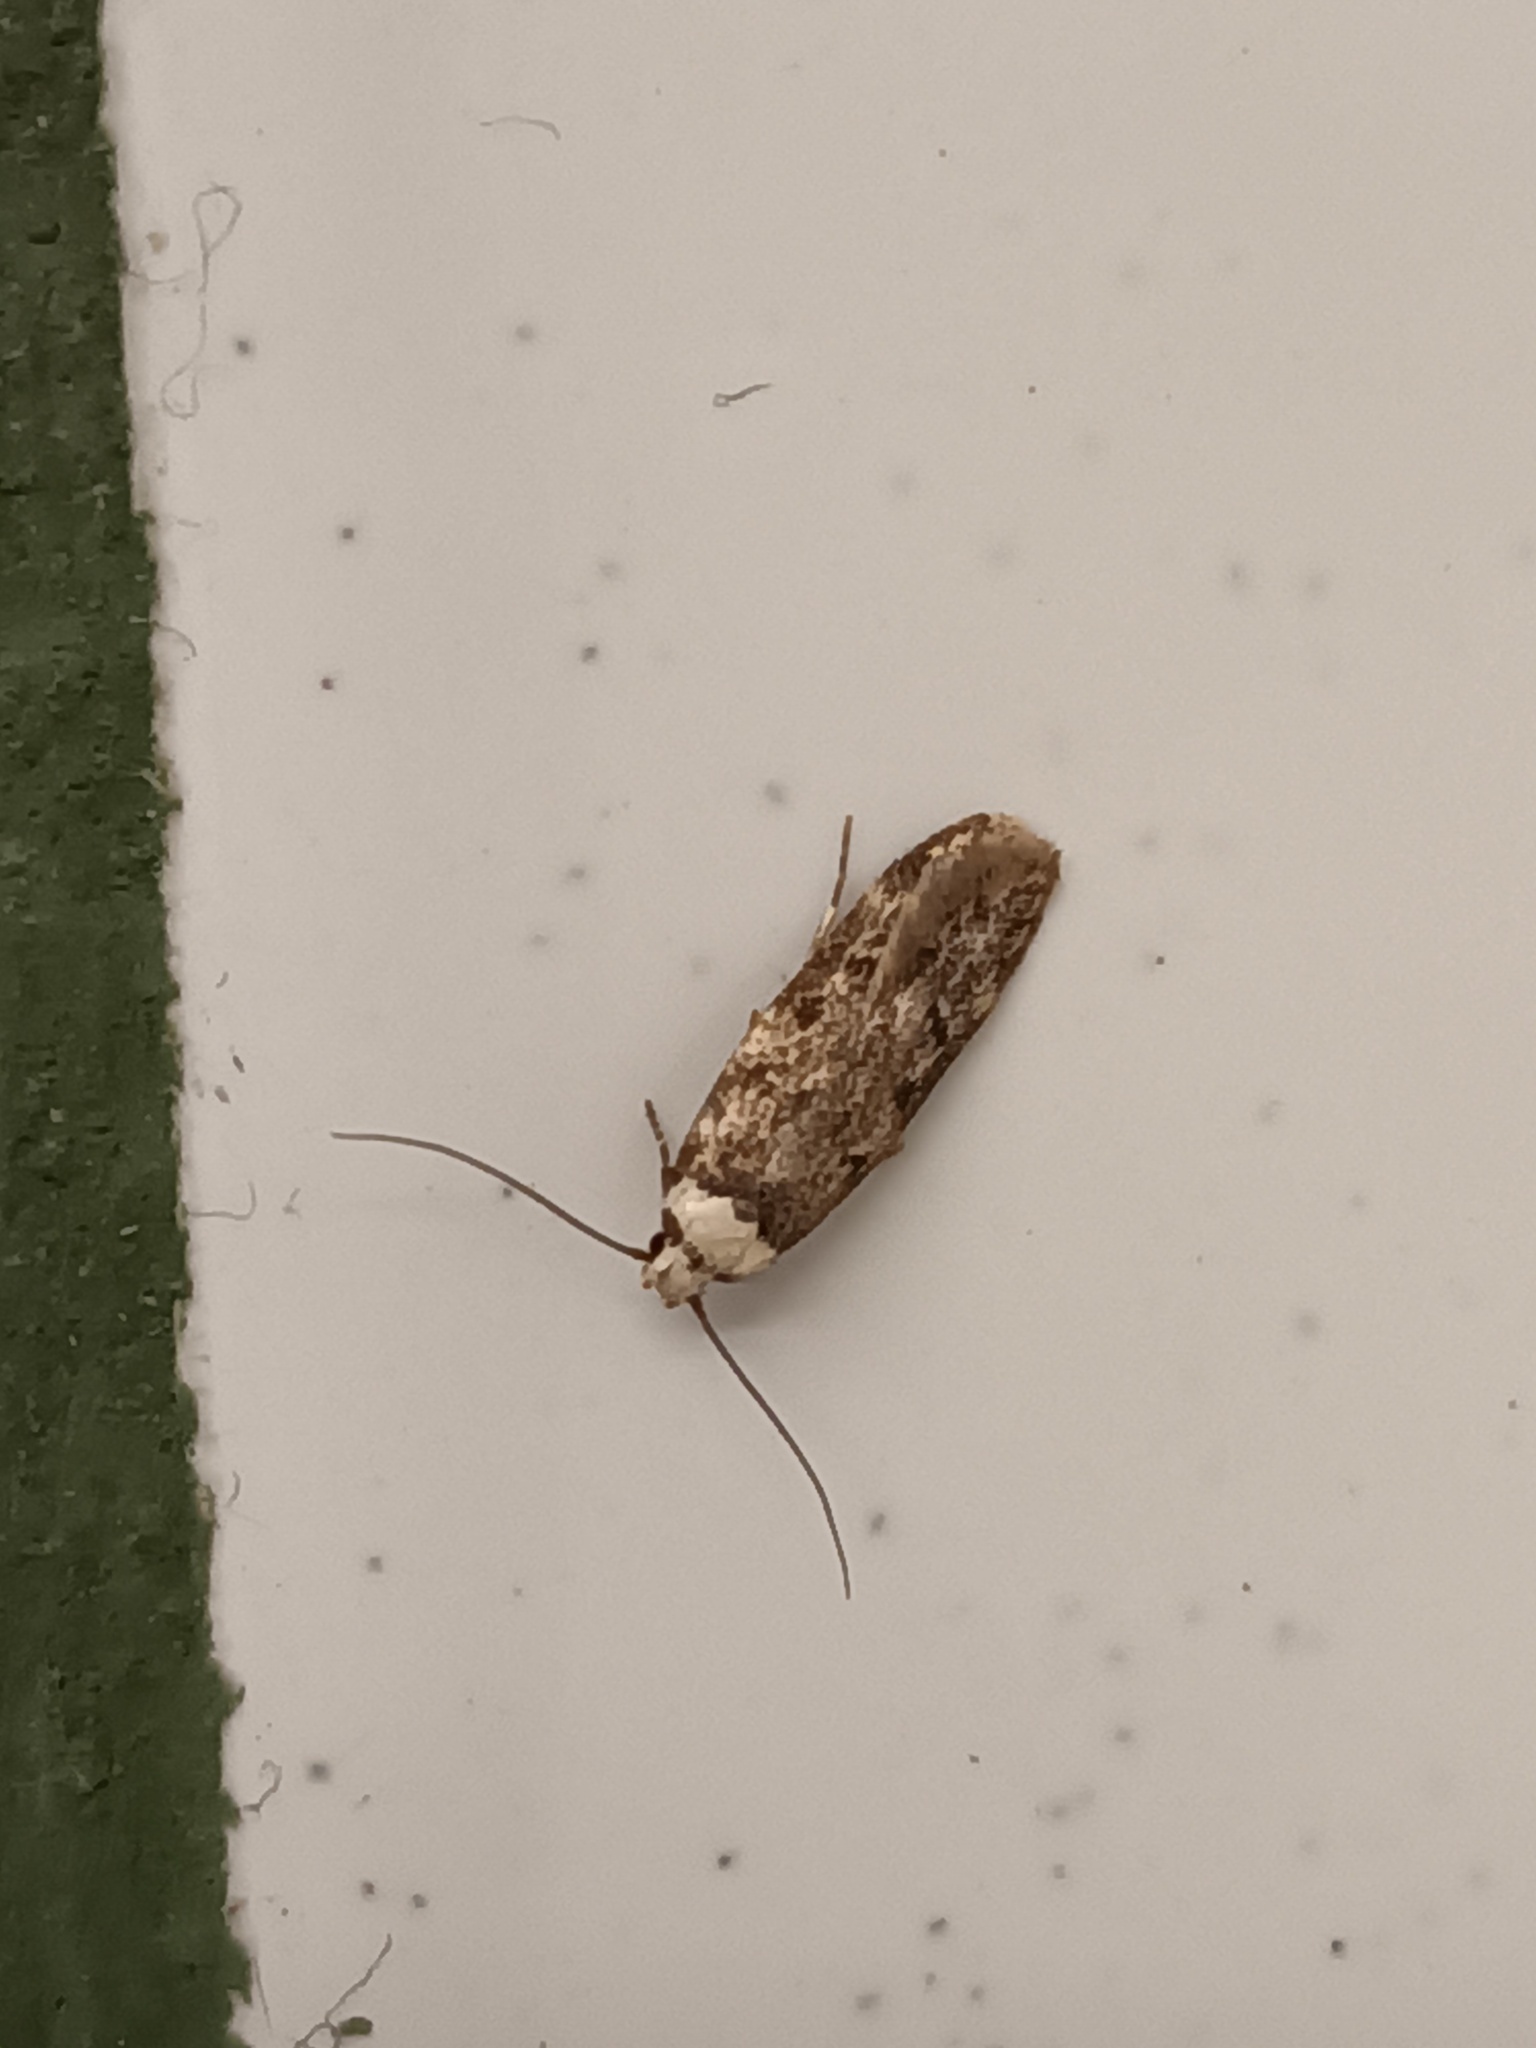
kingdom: Animalia
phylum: Arthropoda
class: Insecta
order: Lepidoptera
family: Oecophoridae
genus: Endrosis
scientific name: Endrosis sarcitrella
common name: White-shouldered house moth
